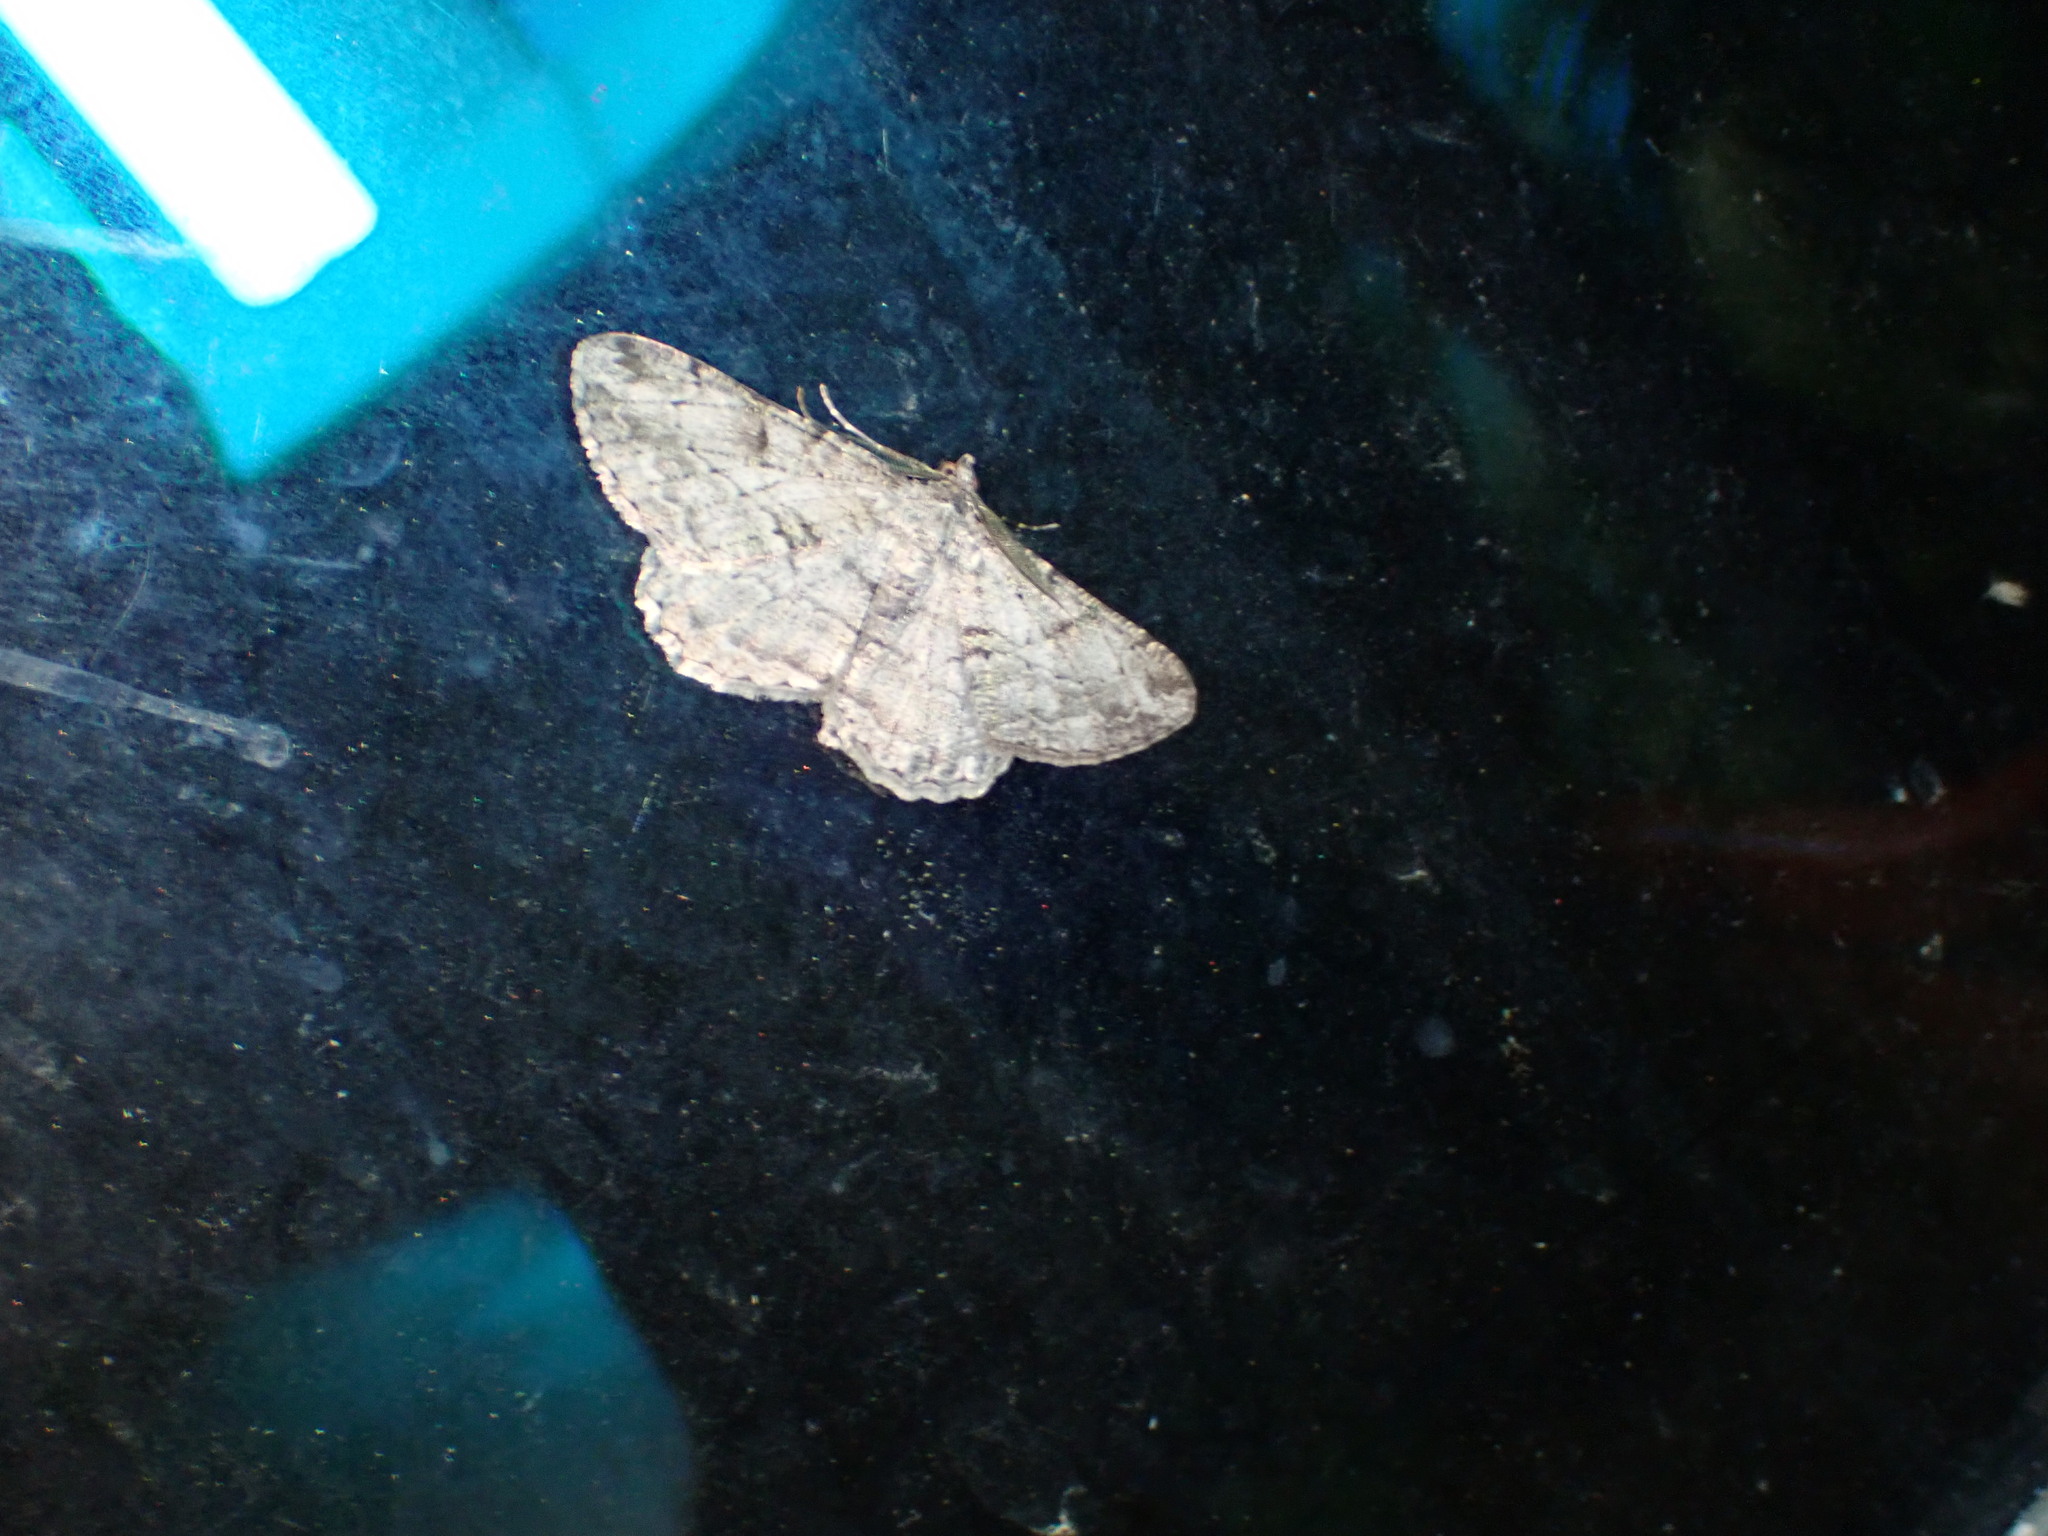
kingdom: Animalia
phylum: Arthropoda
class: Insecta
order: Lepidoptera
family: Geometridae
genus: Peribatodes
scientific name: Peribatodes rhomboidaria
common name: Willow beauty
